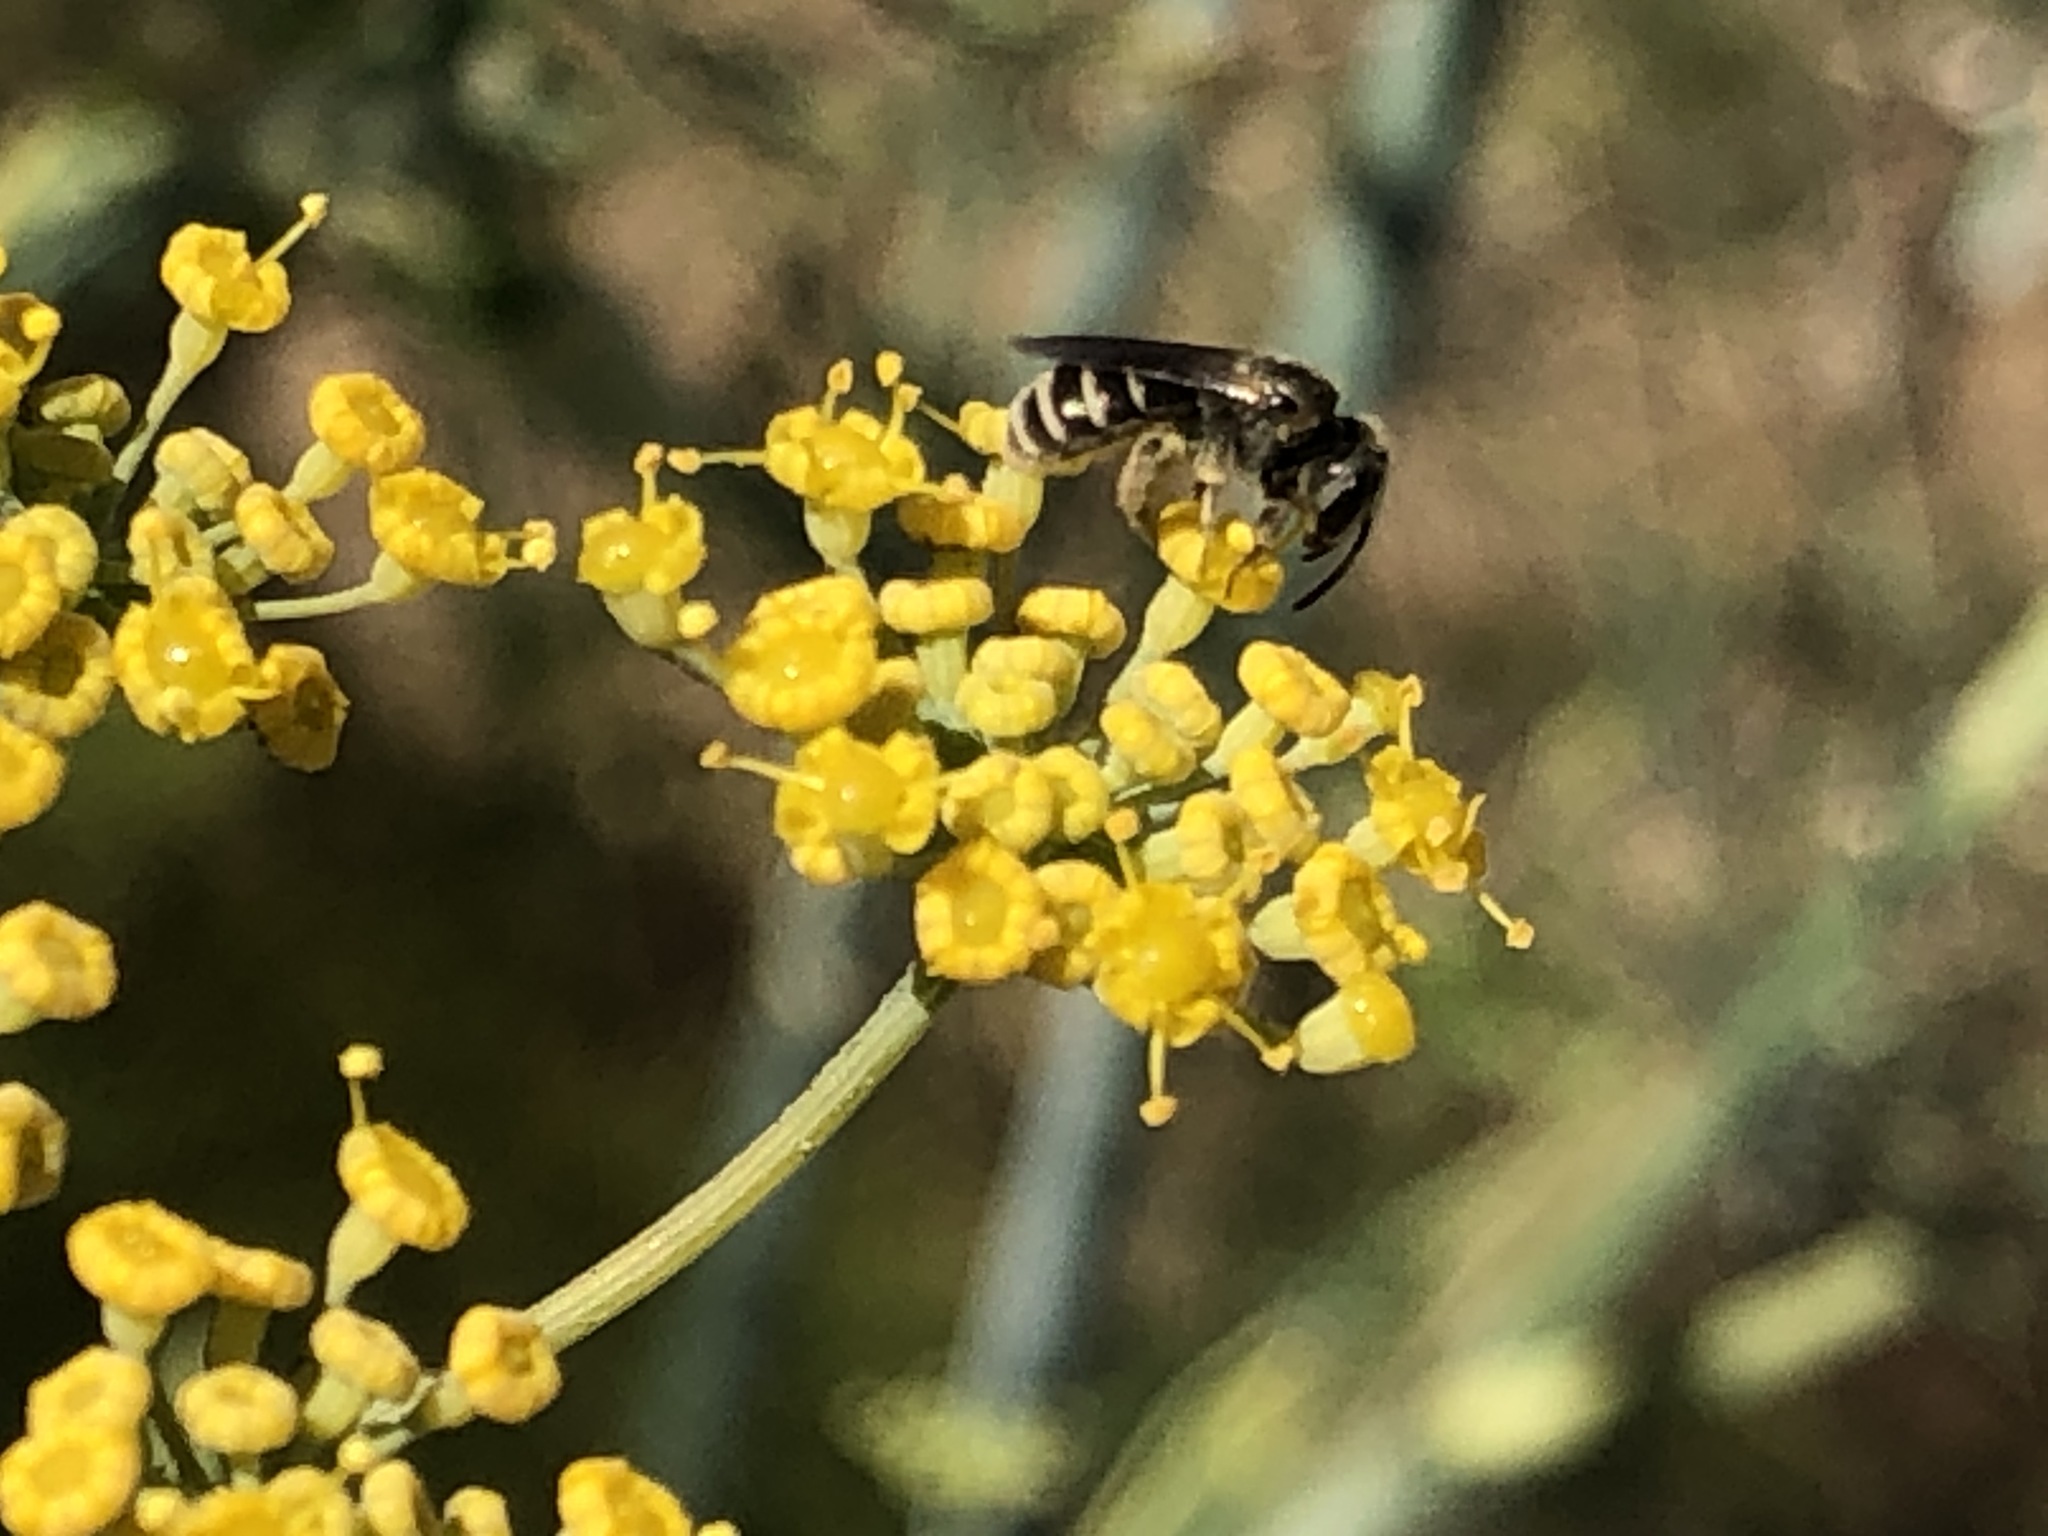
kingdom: Animalia
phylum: Arthropoda
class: Insecta
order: Hymenoptera
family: Halictidae
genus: Halictus
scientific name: Halictus tripartitus
